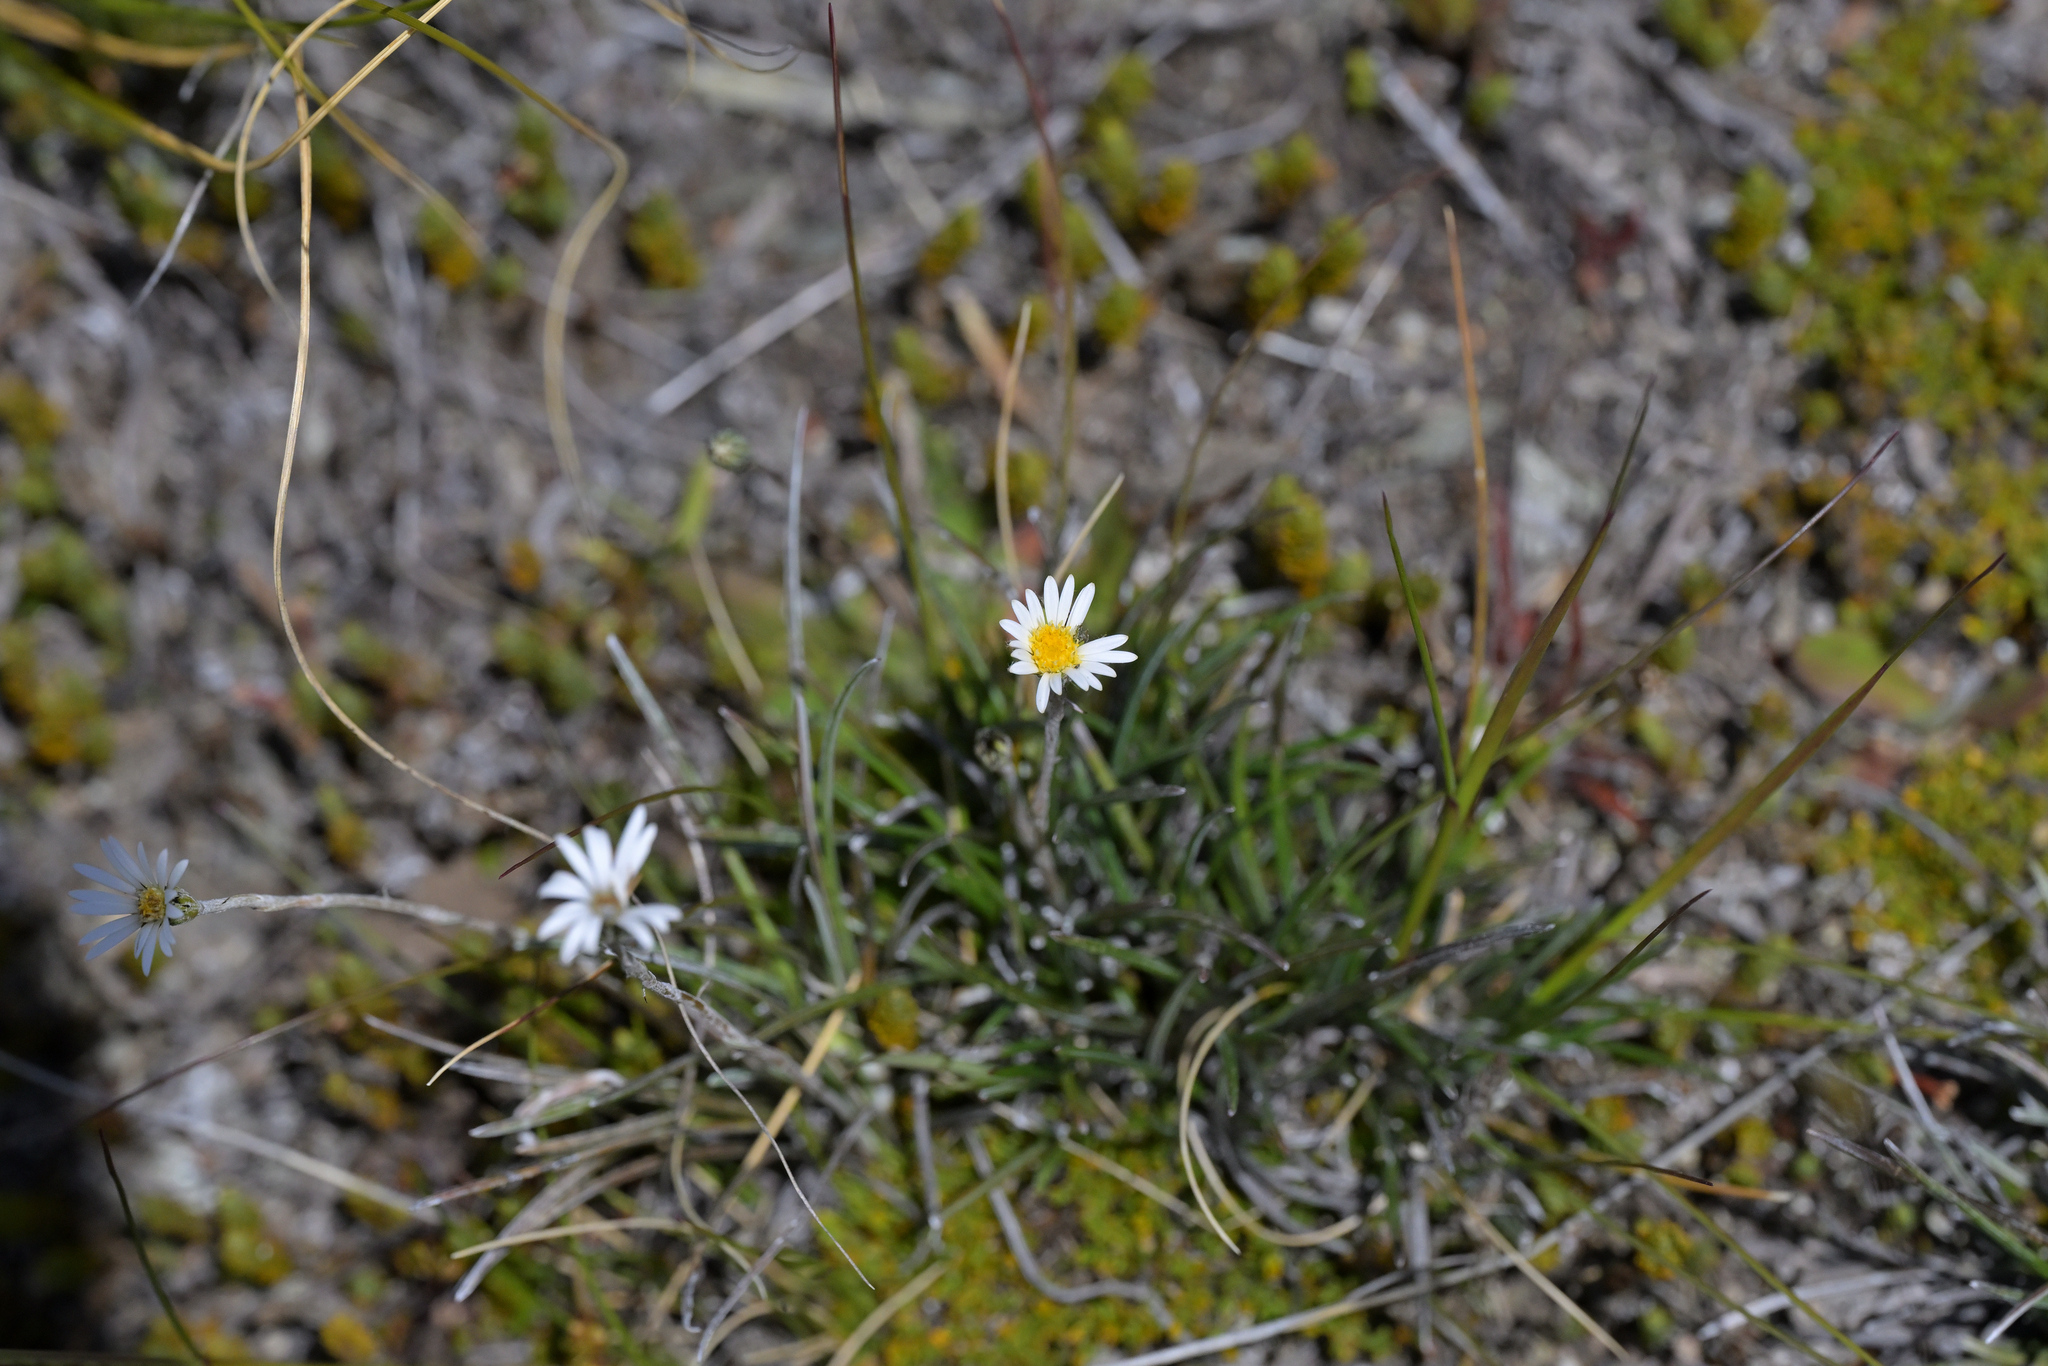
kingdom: Plantae
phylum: Tracheophyta
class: Magnoliopsida
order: Asterales
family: Asteraceae
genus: Celmisia
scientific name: Celmisia gracilenta
